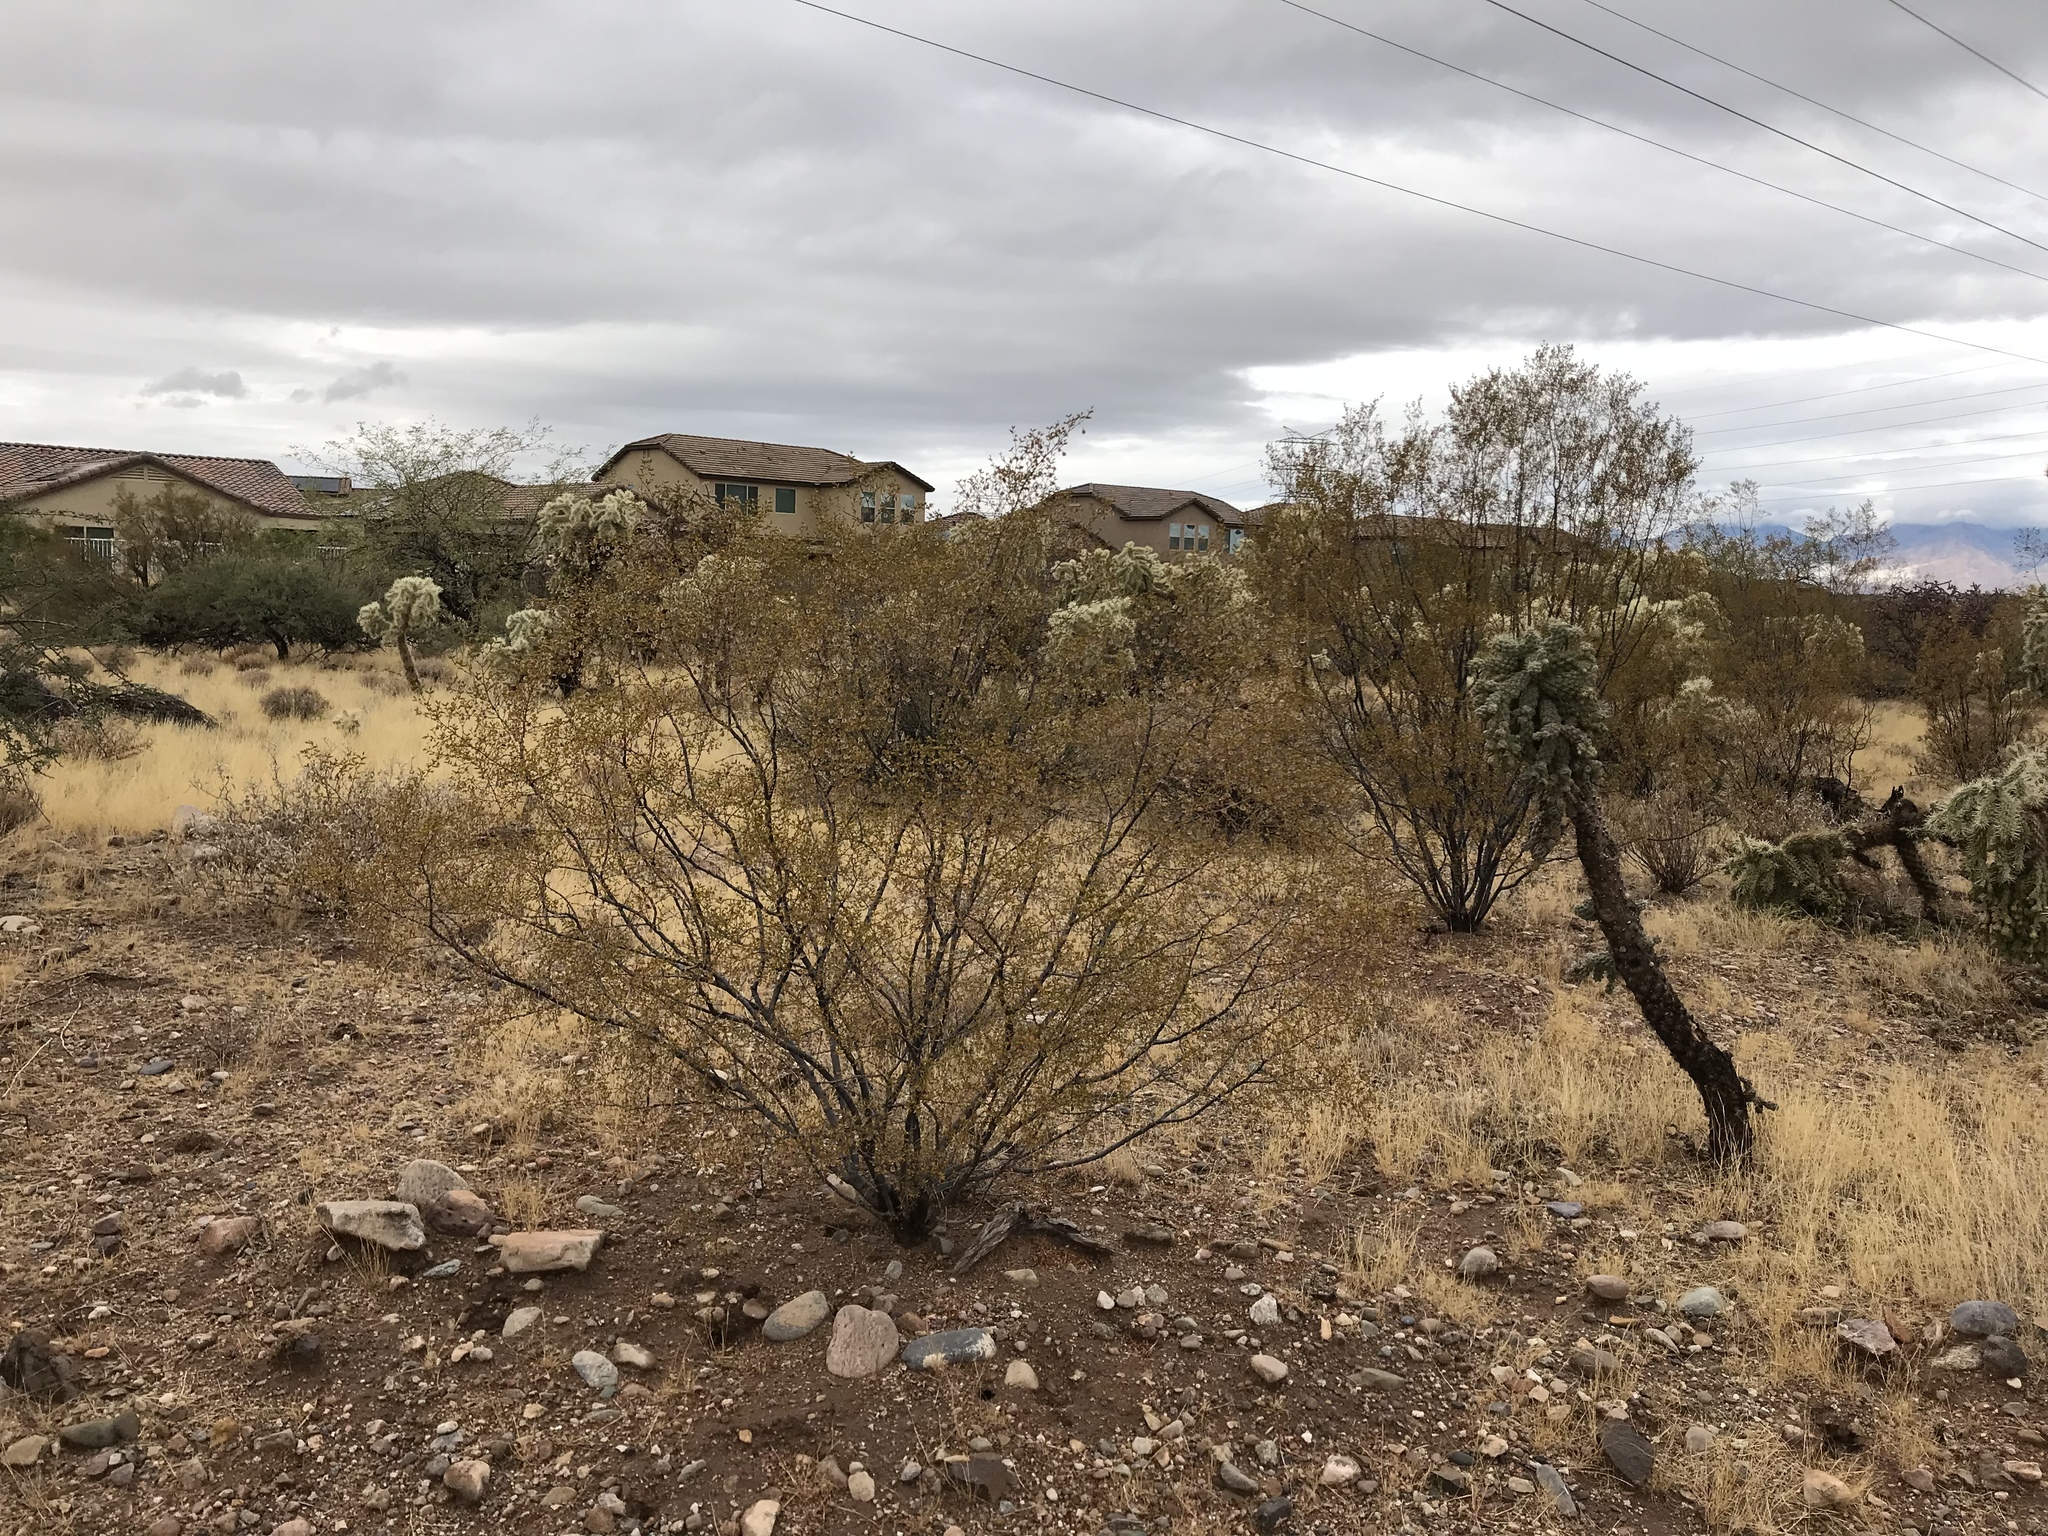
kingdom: Plantae
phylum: Tracheophyta
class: Magnoliopsida
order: Zygophyllales
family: Zygophyllaceae
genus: Larrea
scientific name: Larrea tridentata
